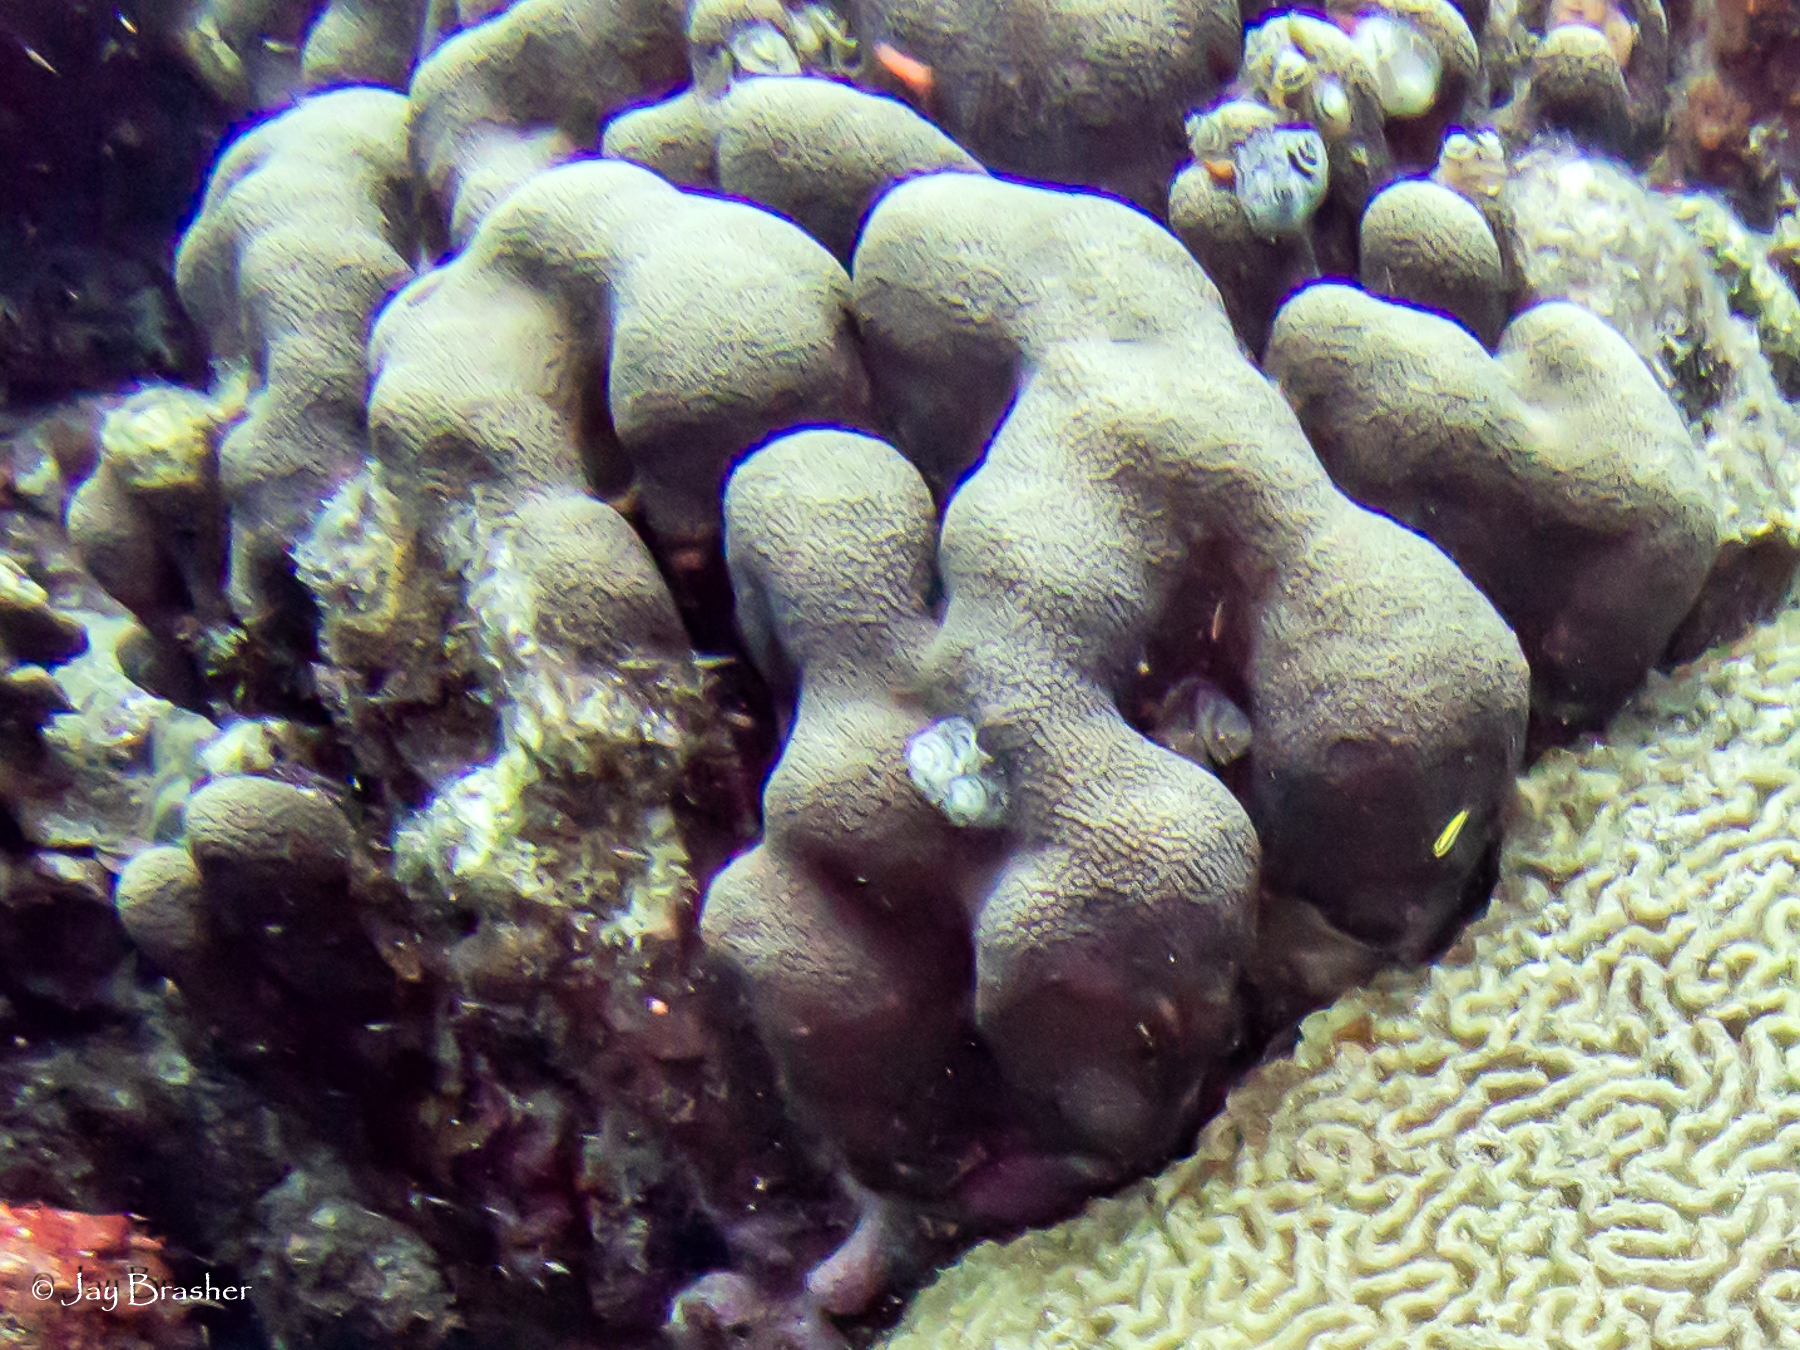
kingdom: Animalia
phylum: Cnidaria
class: Anthozoa
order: Scleractinia
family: Merulinidae
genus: Orbicella
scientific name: Orbicella annularis
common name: Boulder star coral
